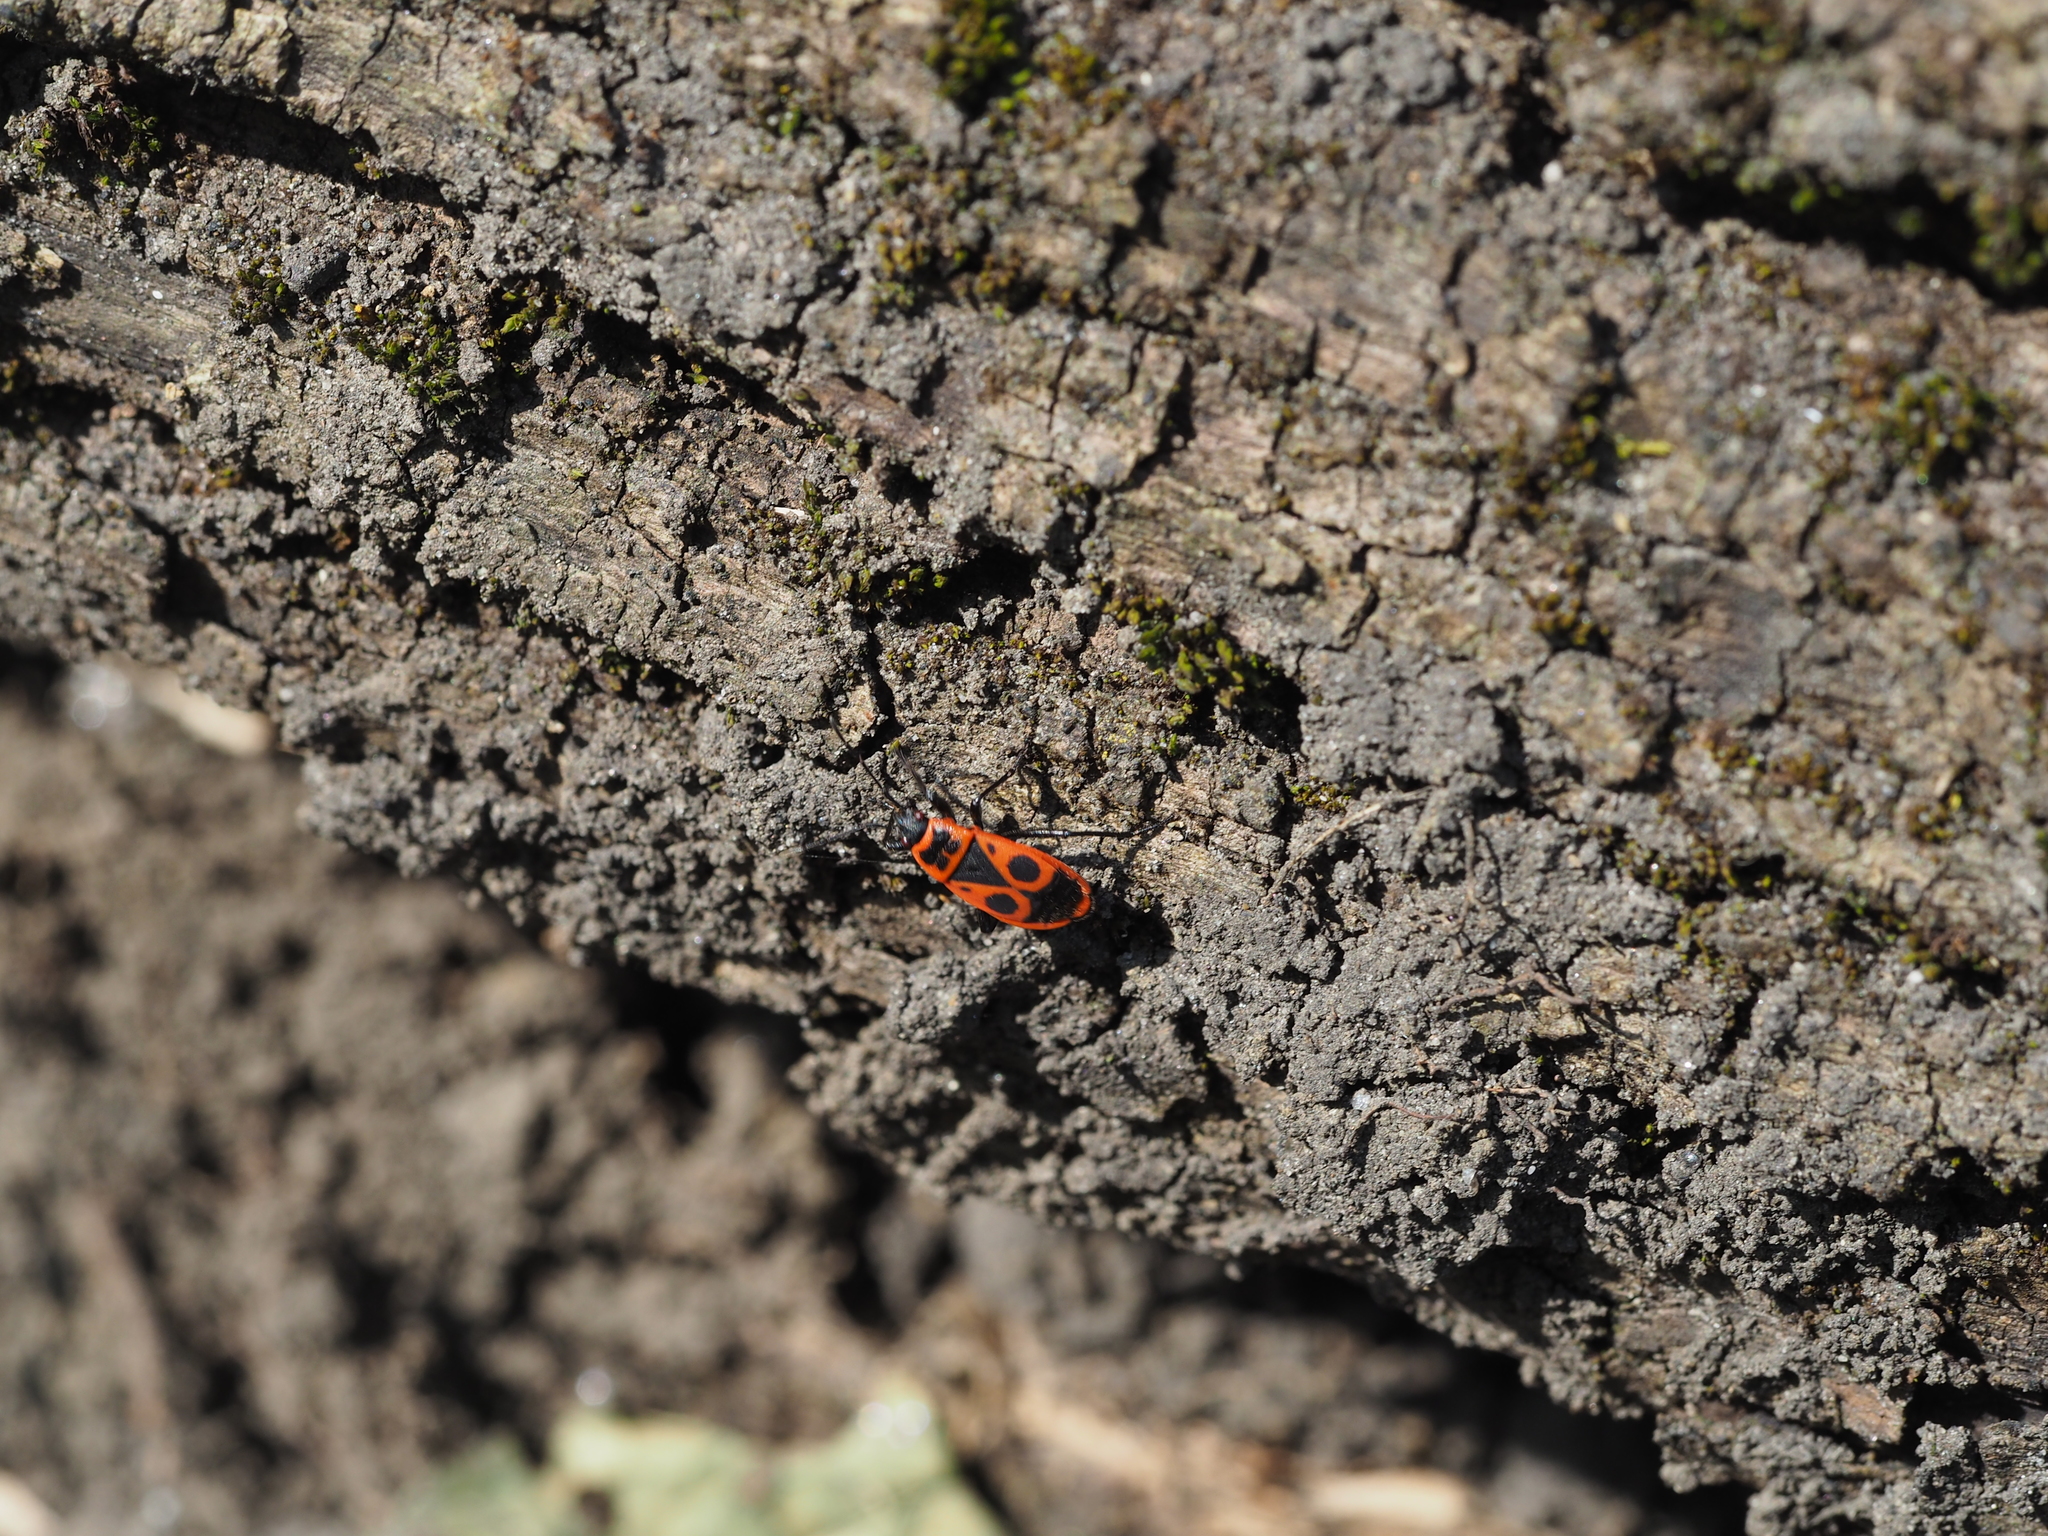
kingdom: Animalia
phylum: Arthropoda
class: Insecta
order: Hemiptera
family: Pyrrhocoridae
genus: Pyrrhocoris
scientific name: Pyrrhocoris apterus
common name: Firebug
